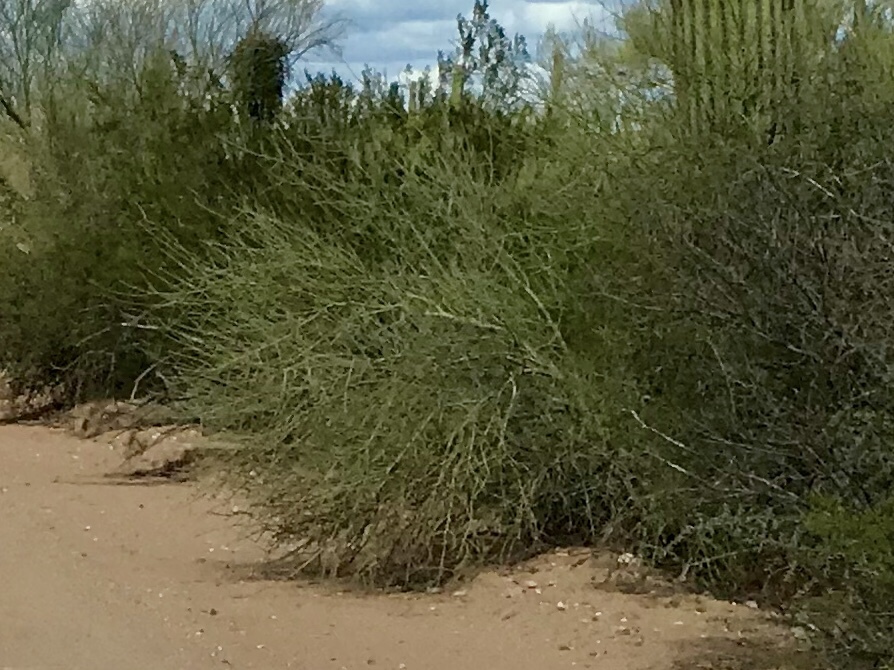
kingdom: Plantae
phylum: Tracheophyta
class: Magnoliopsida
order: Fabales
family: Fabaceae
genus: Parkinsonia
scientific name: Parkinsonia florida
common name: Blue paloverde
